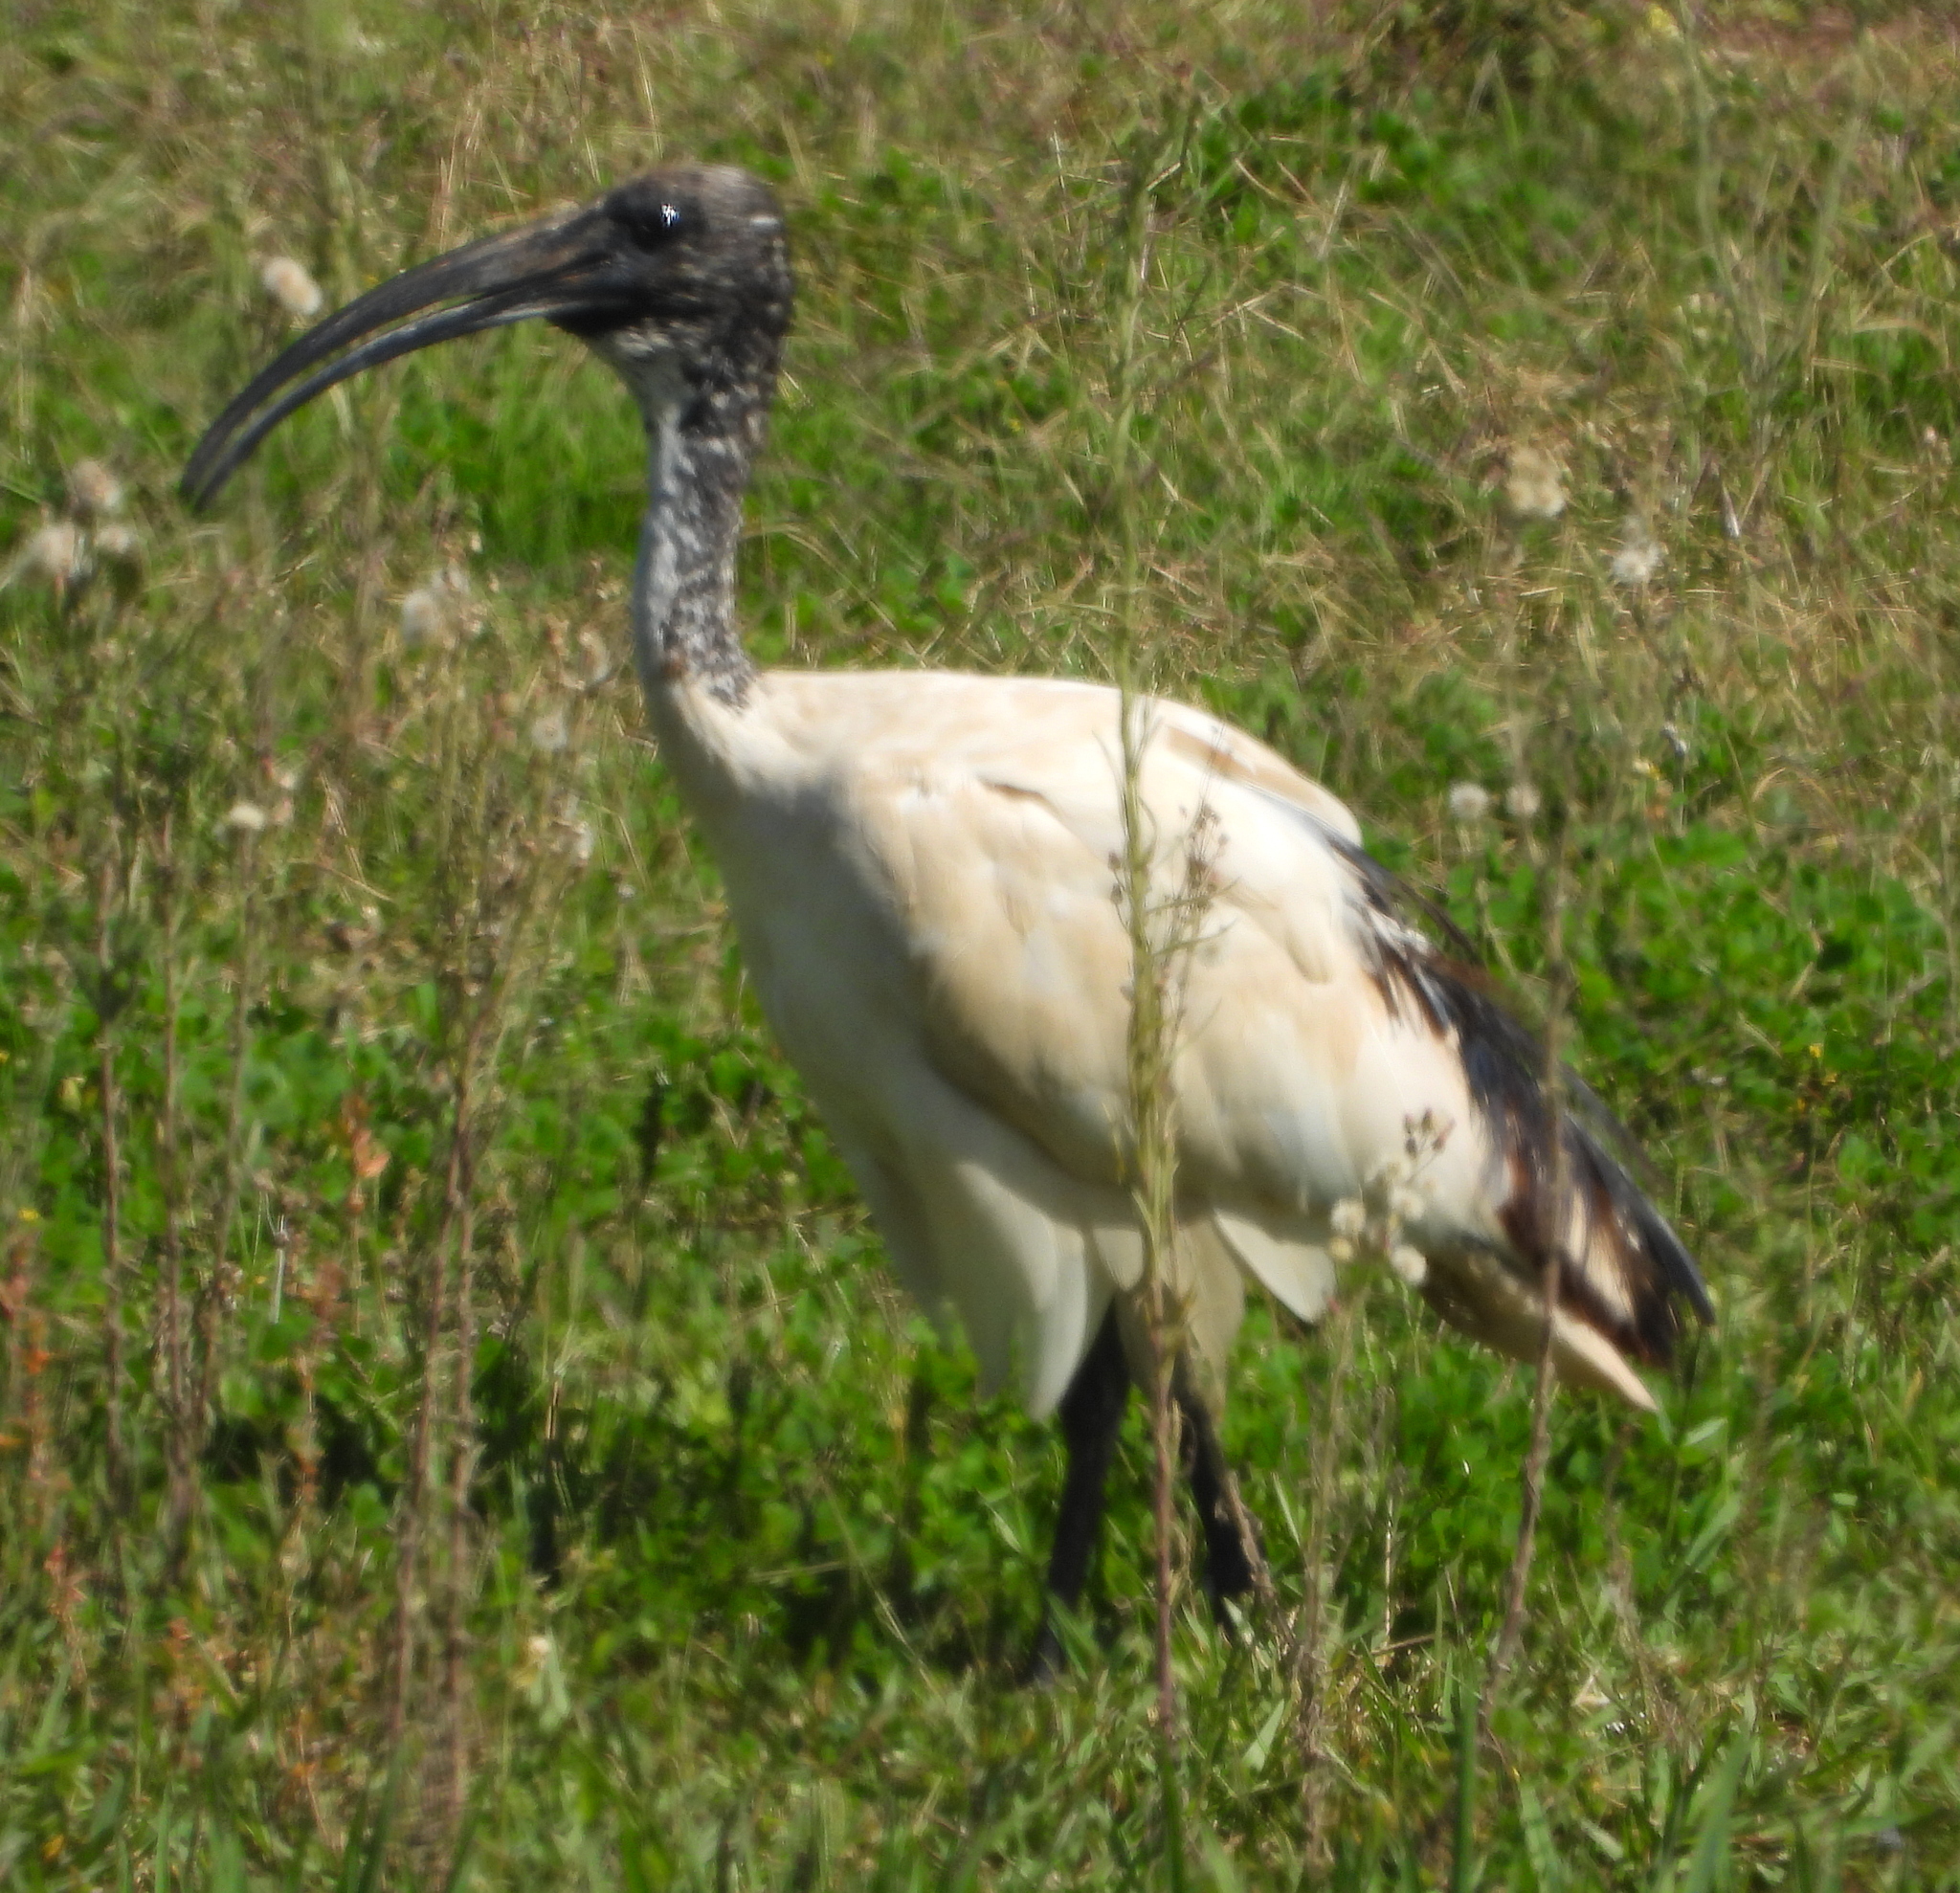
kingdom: Animalia
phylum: Chordata
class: Aves
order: Pelecaniformes
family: Threskiornithidae
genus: Threskiornis
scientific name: Threskiornis aethiopicus
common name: Sacred ibis
